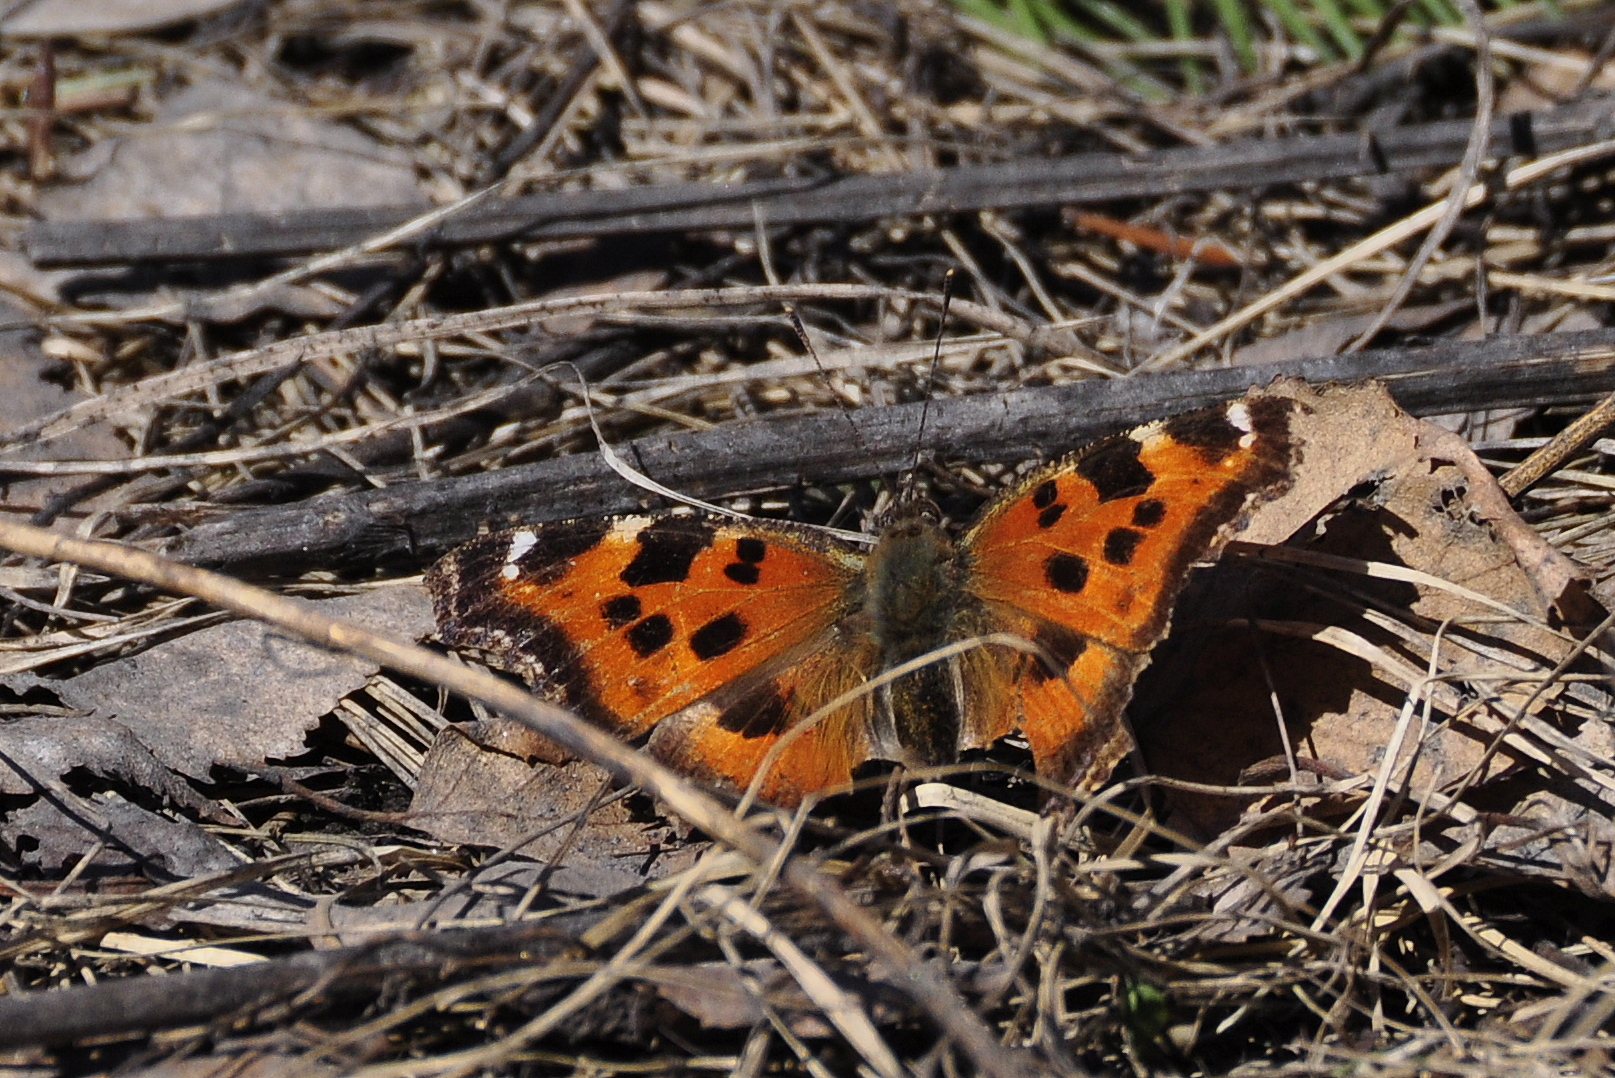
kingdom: Animalia
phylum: Arthropoda
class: Insecta
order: Lepidoptera
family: Nymphalidae
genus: Nymphalis
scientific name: Nymphalis xanthomelas
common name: Scarce tortoiseshell
